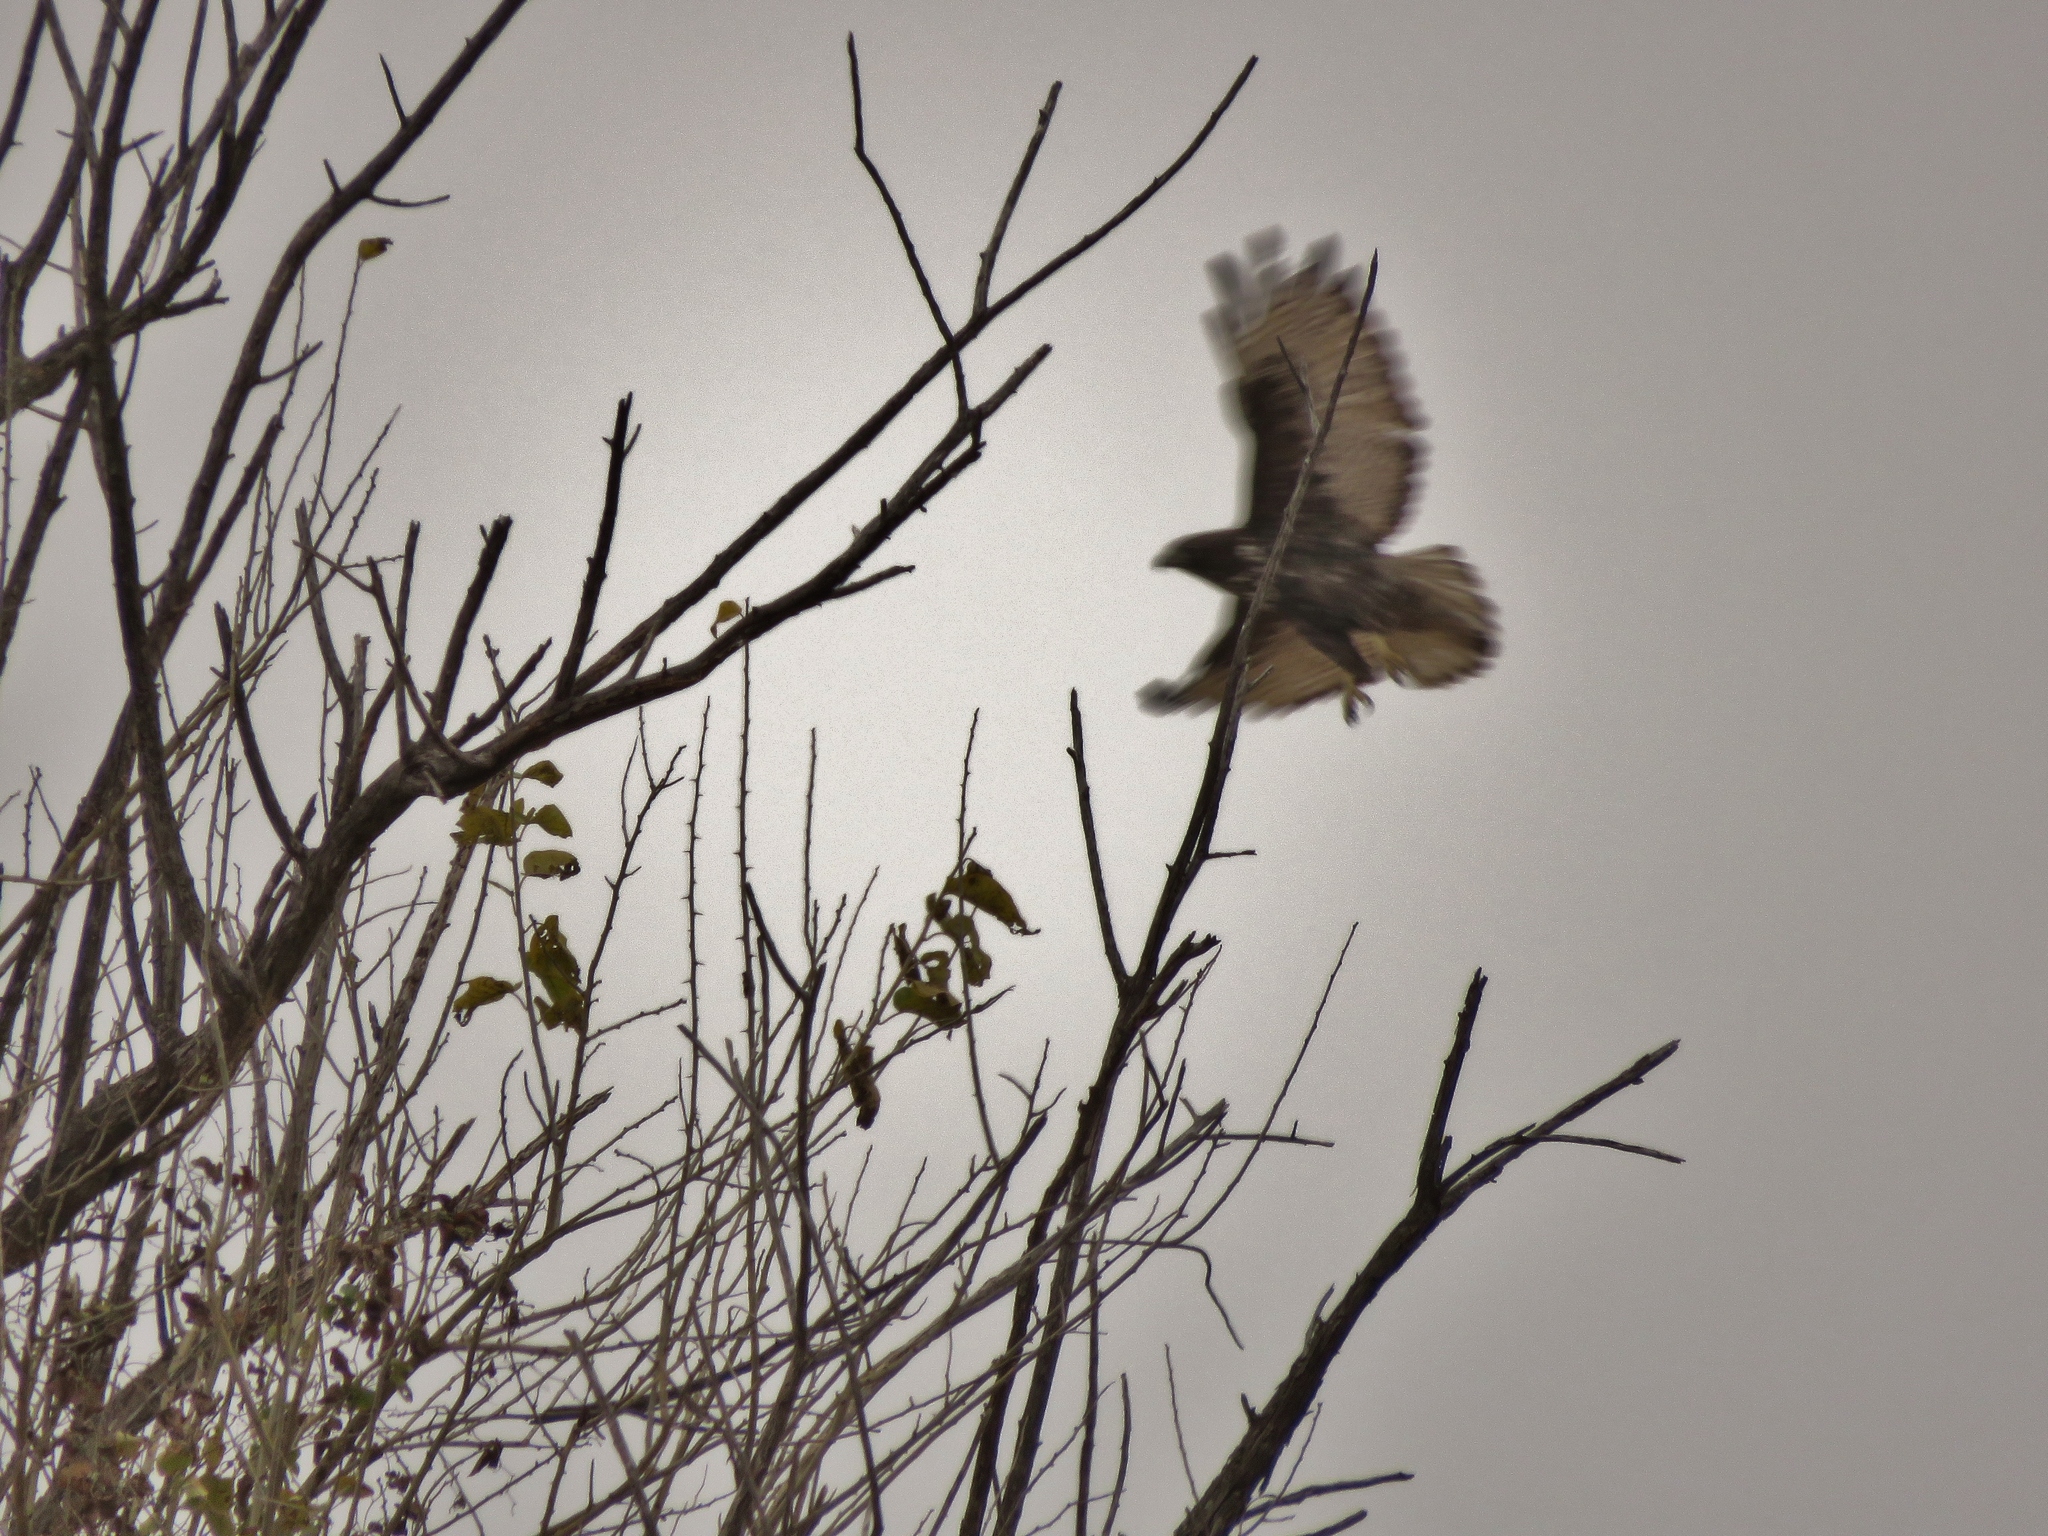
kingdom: Animalia
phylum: Chordata
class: Aves
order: Accipitriformes
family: Accipitridae
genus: Buteo
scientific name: Buteo jamaicensis
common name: Red-tailed hawk
